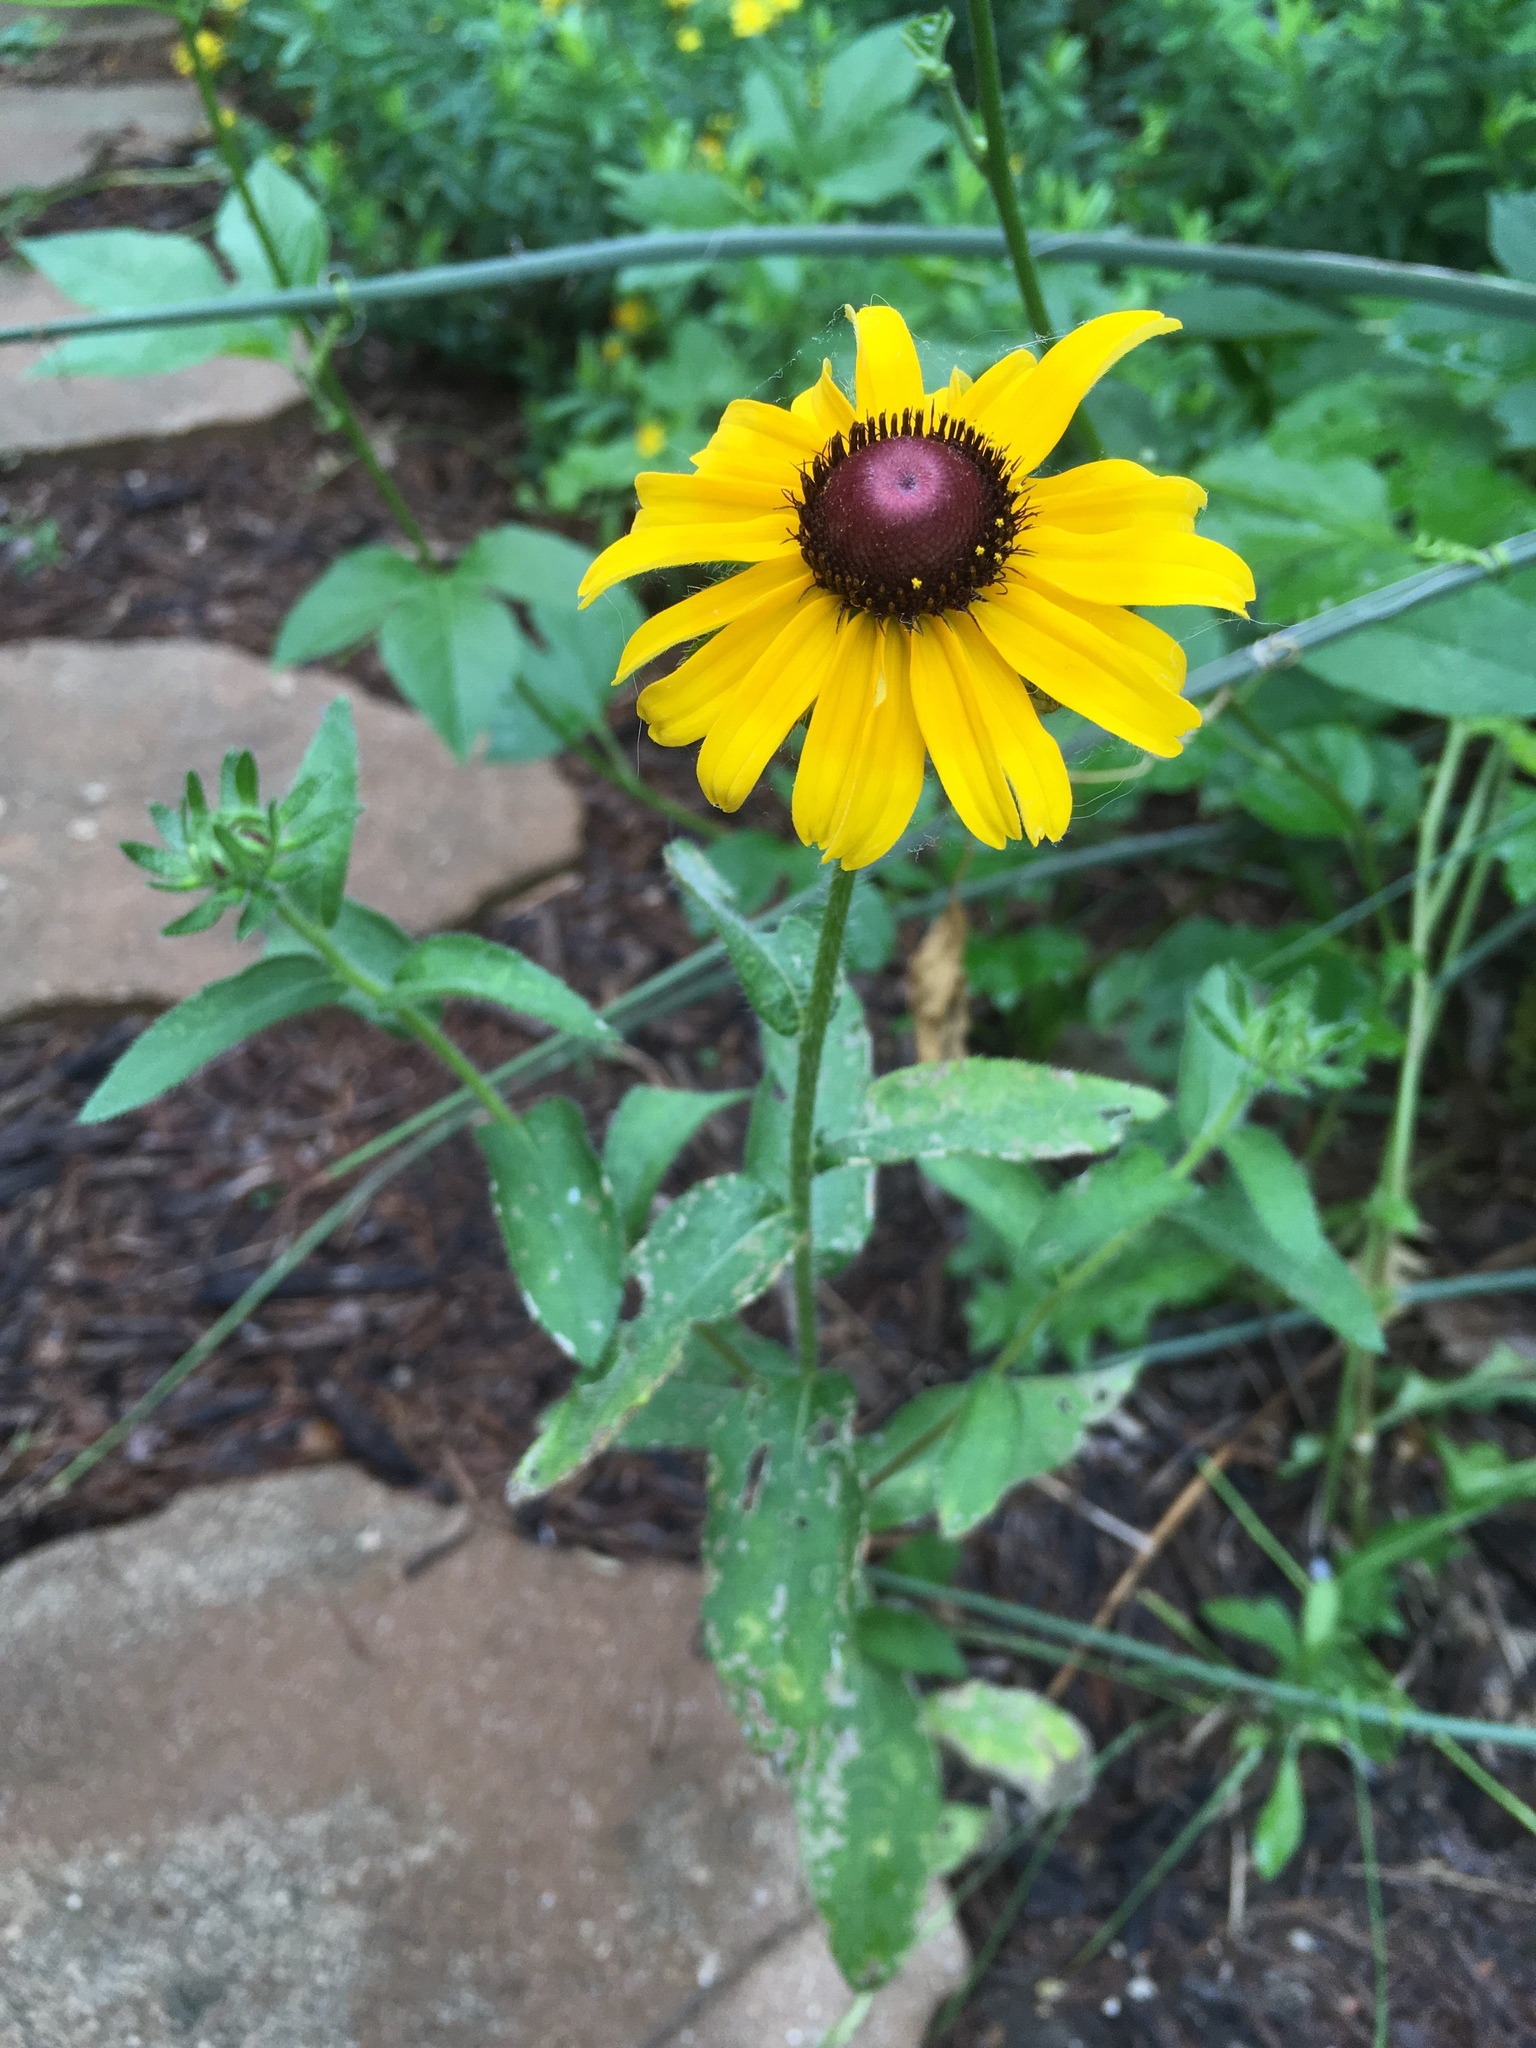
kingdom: Plantae
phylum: Tracheophyta
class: Magnoliopsida
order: Asterales
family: Asteraceae
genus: Rudbeckia
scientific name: Rudbeckia hirta
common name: Black-eyed-susan
